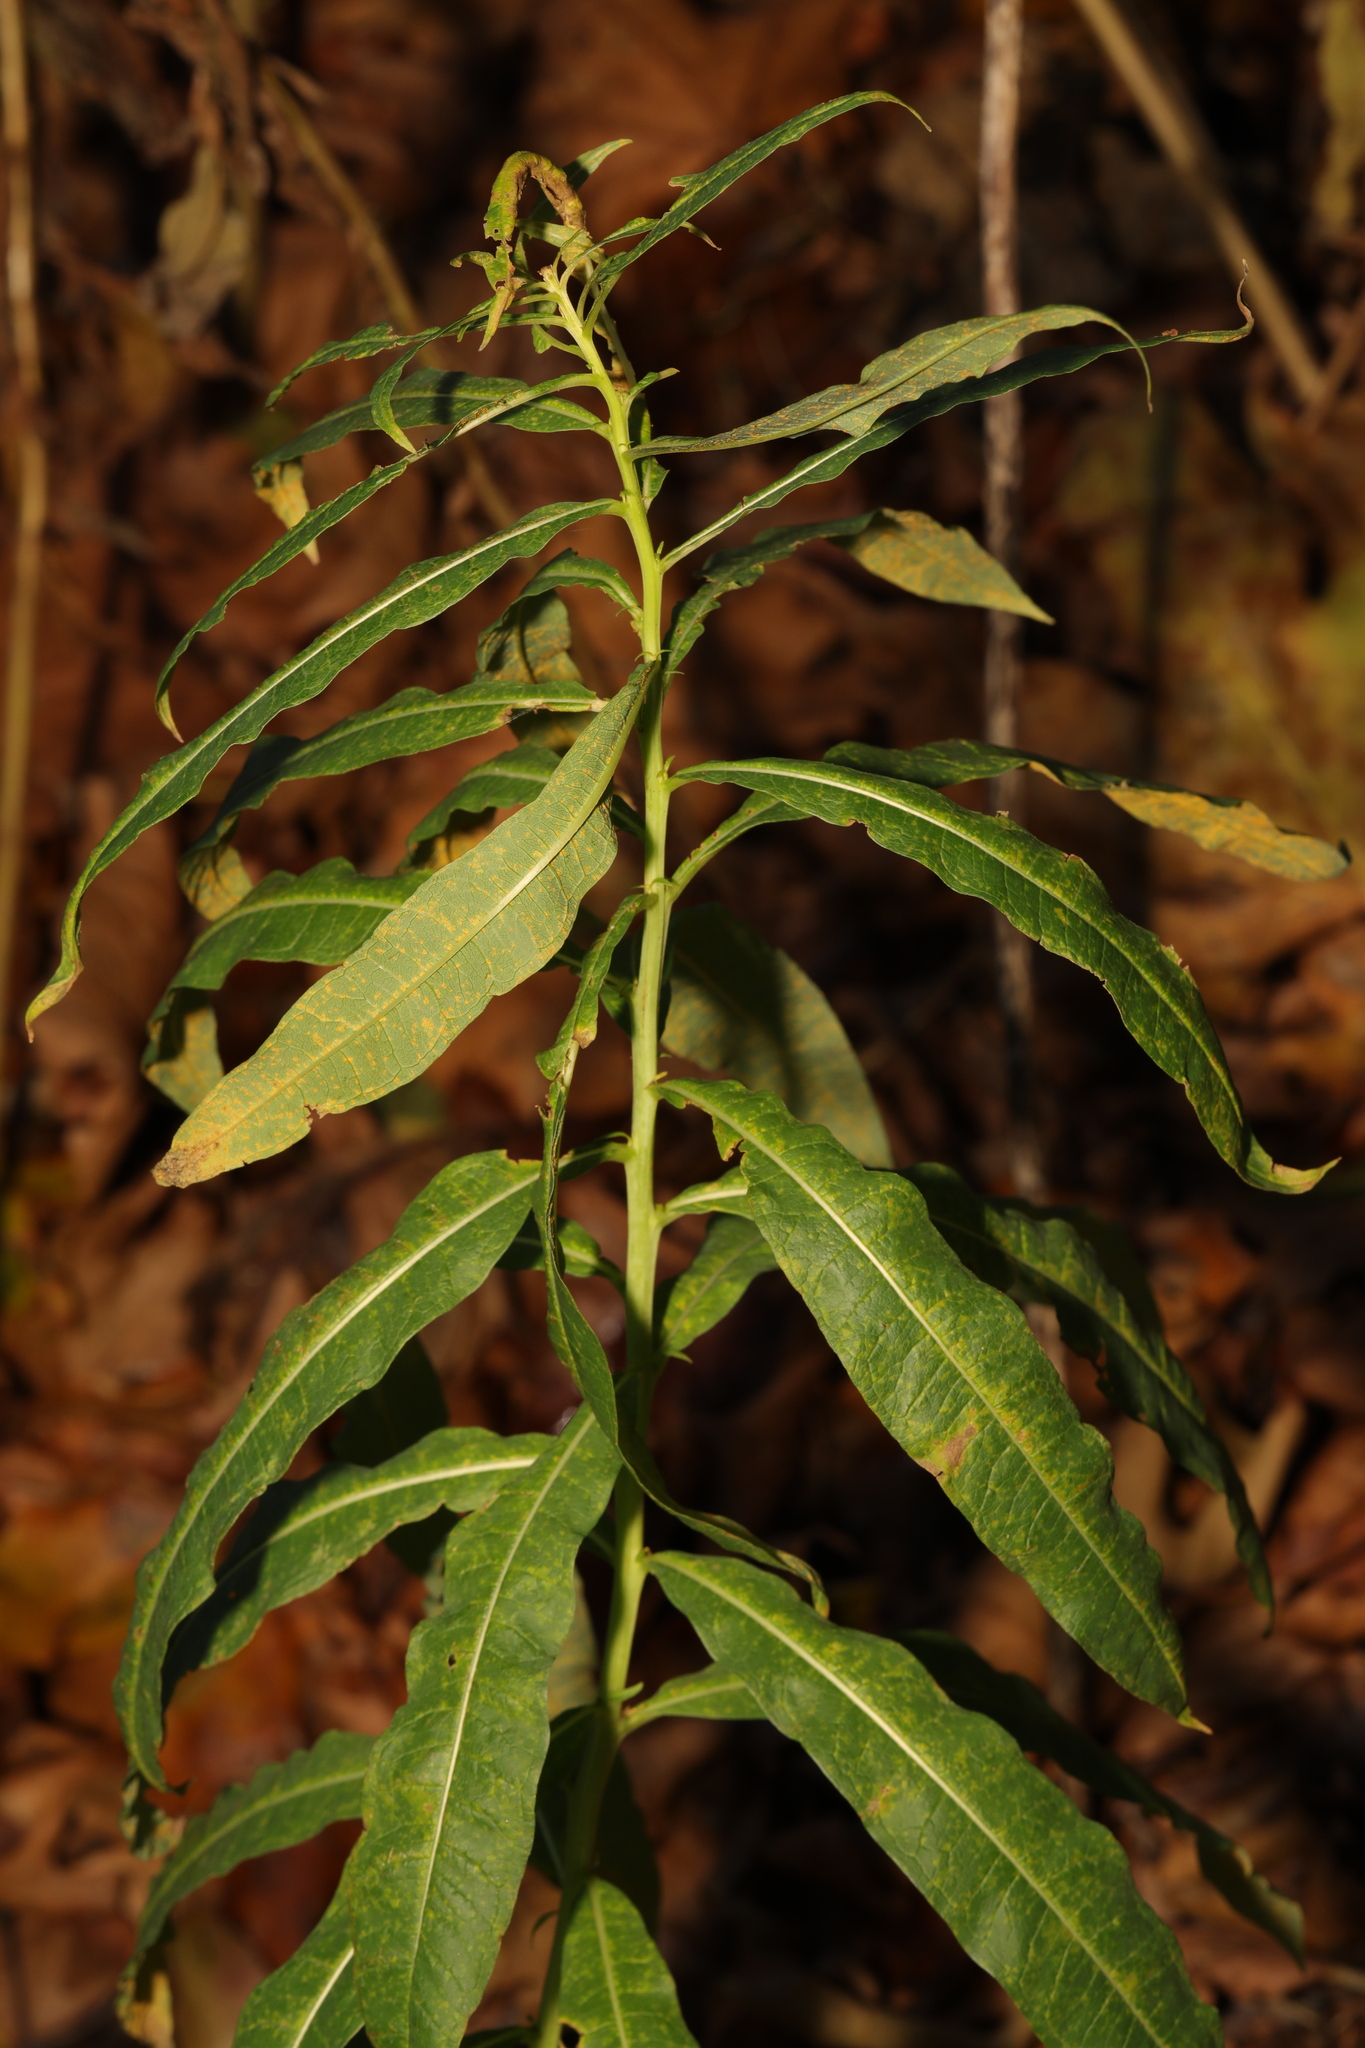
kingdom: Plantae
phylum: Tracheophyta
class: Magnoliopsida
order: Myrtales
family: Onagraceae
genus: Chamaenerion
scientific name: Chamaenerion angustifolium
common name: Fireweed
